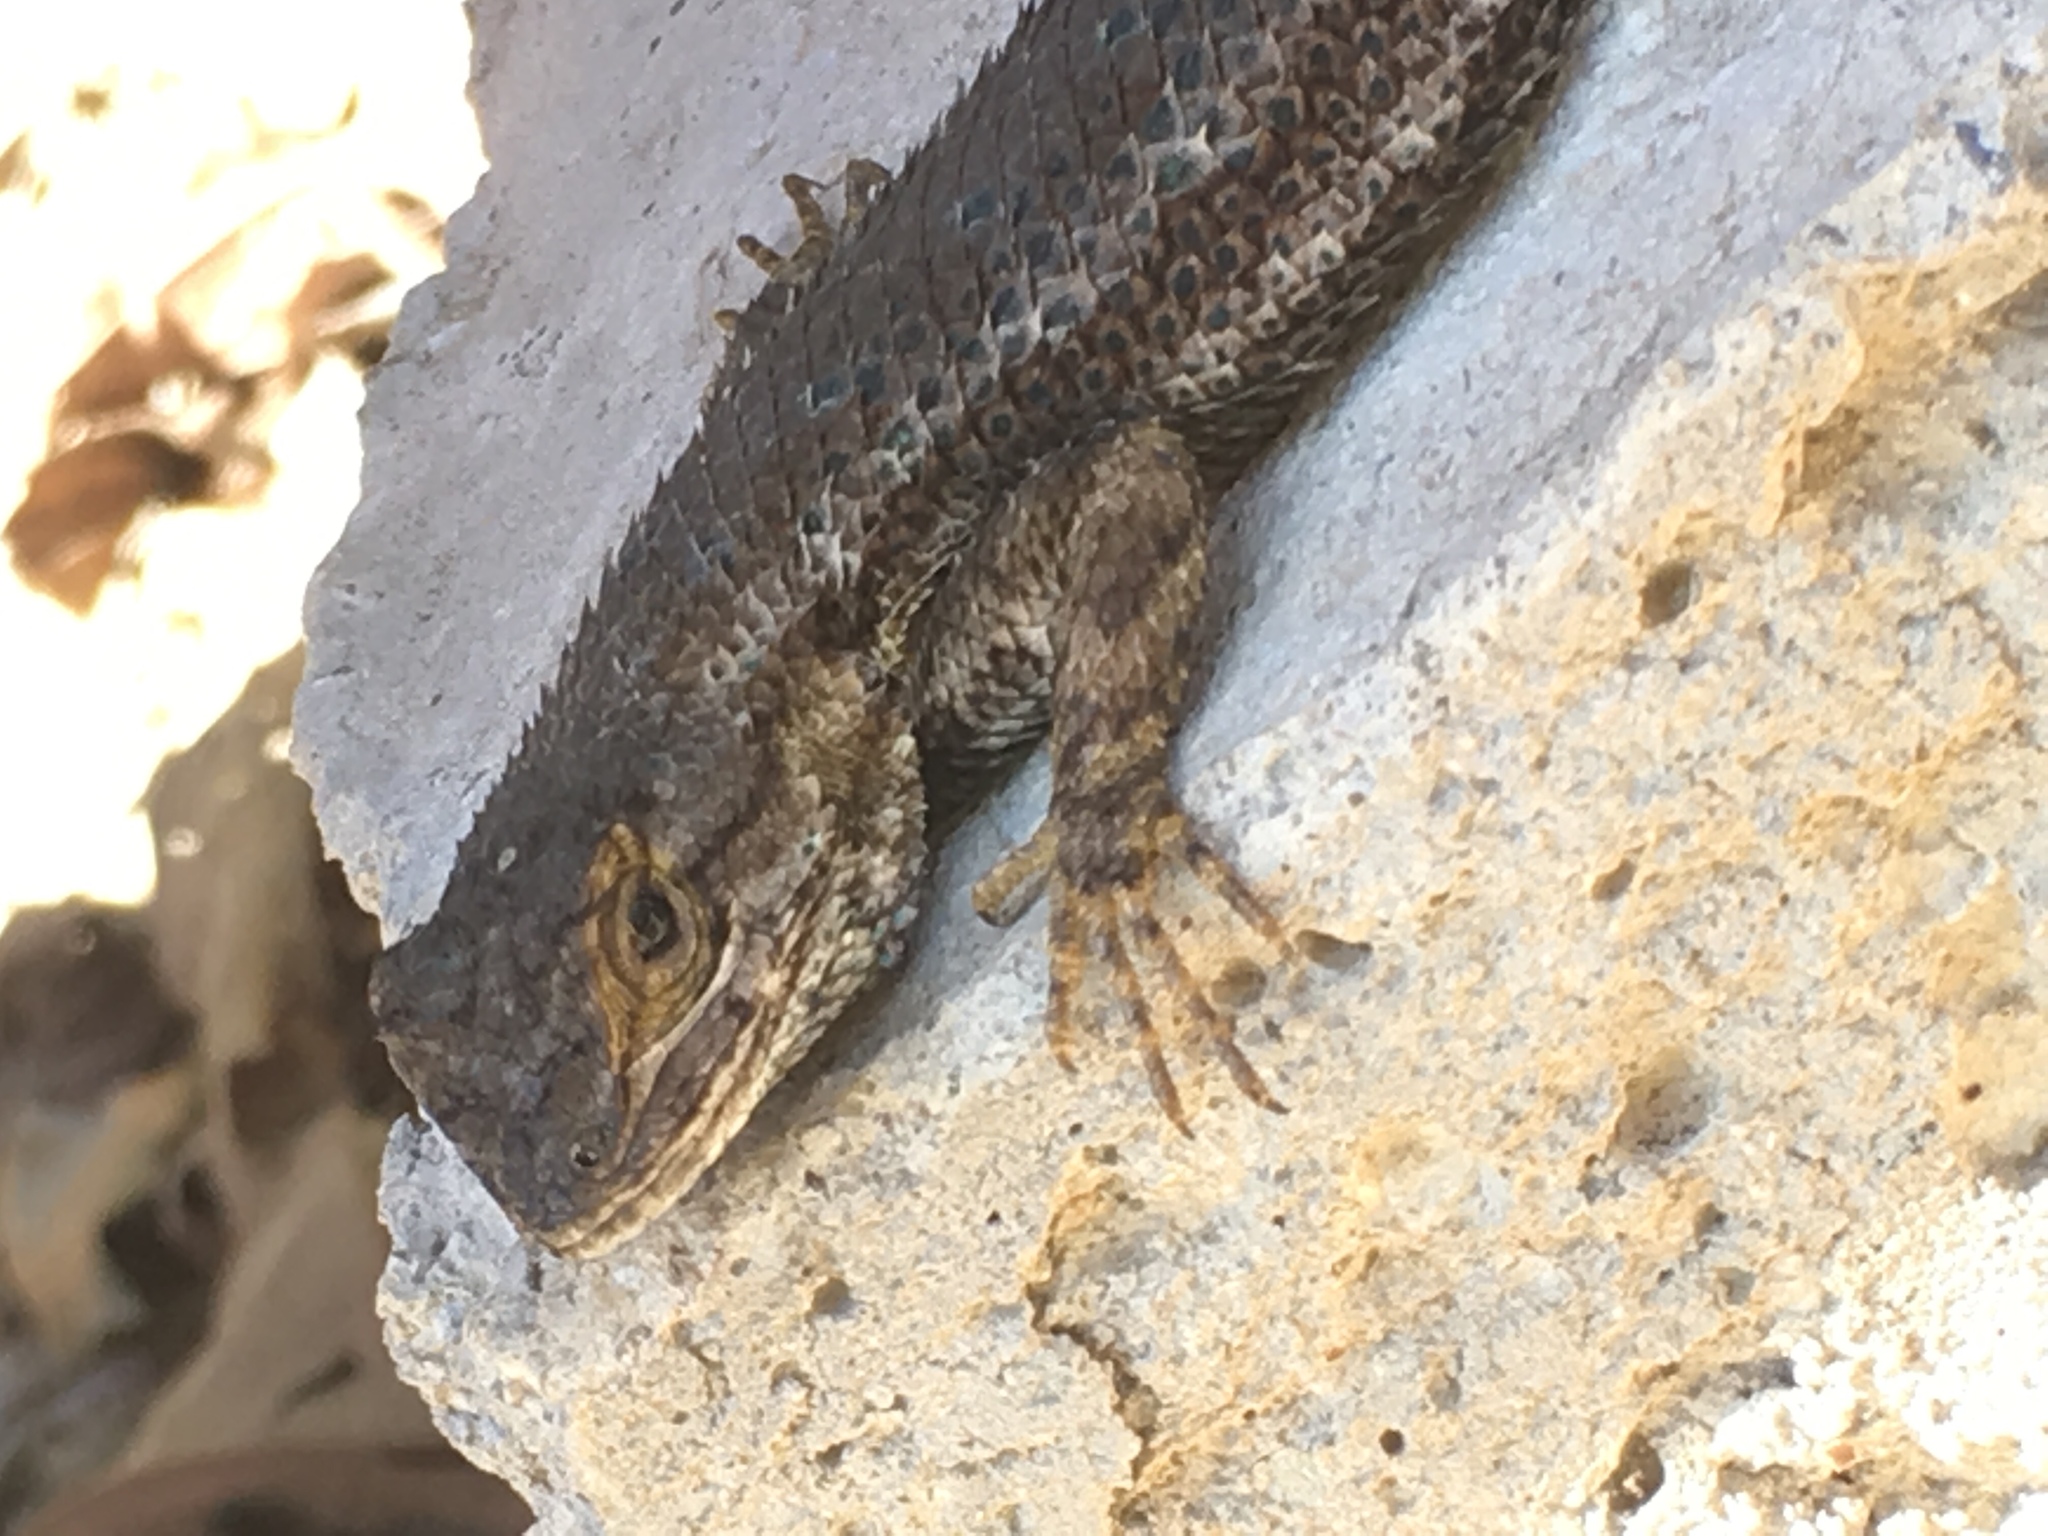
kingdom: Animalia
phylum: Chordata
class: Squamata
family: Phrynosomatidae
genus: Sceloporus
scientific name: Sceloporus occidentalis
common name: Western fence lizard
